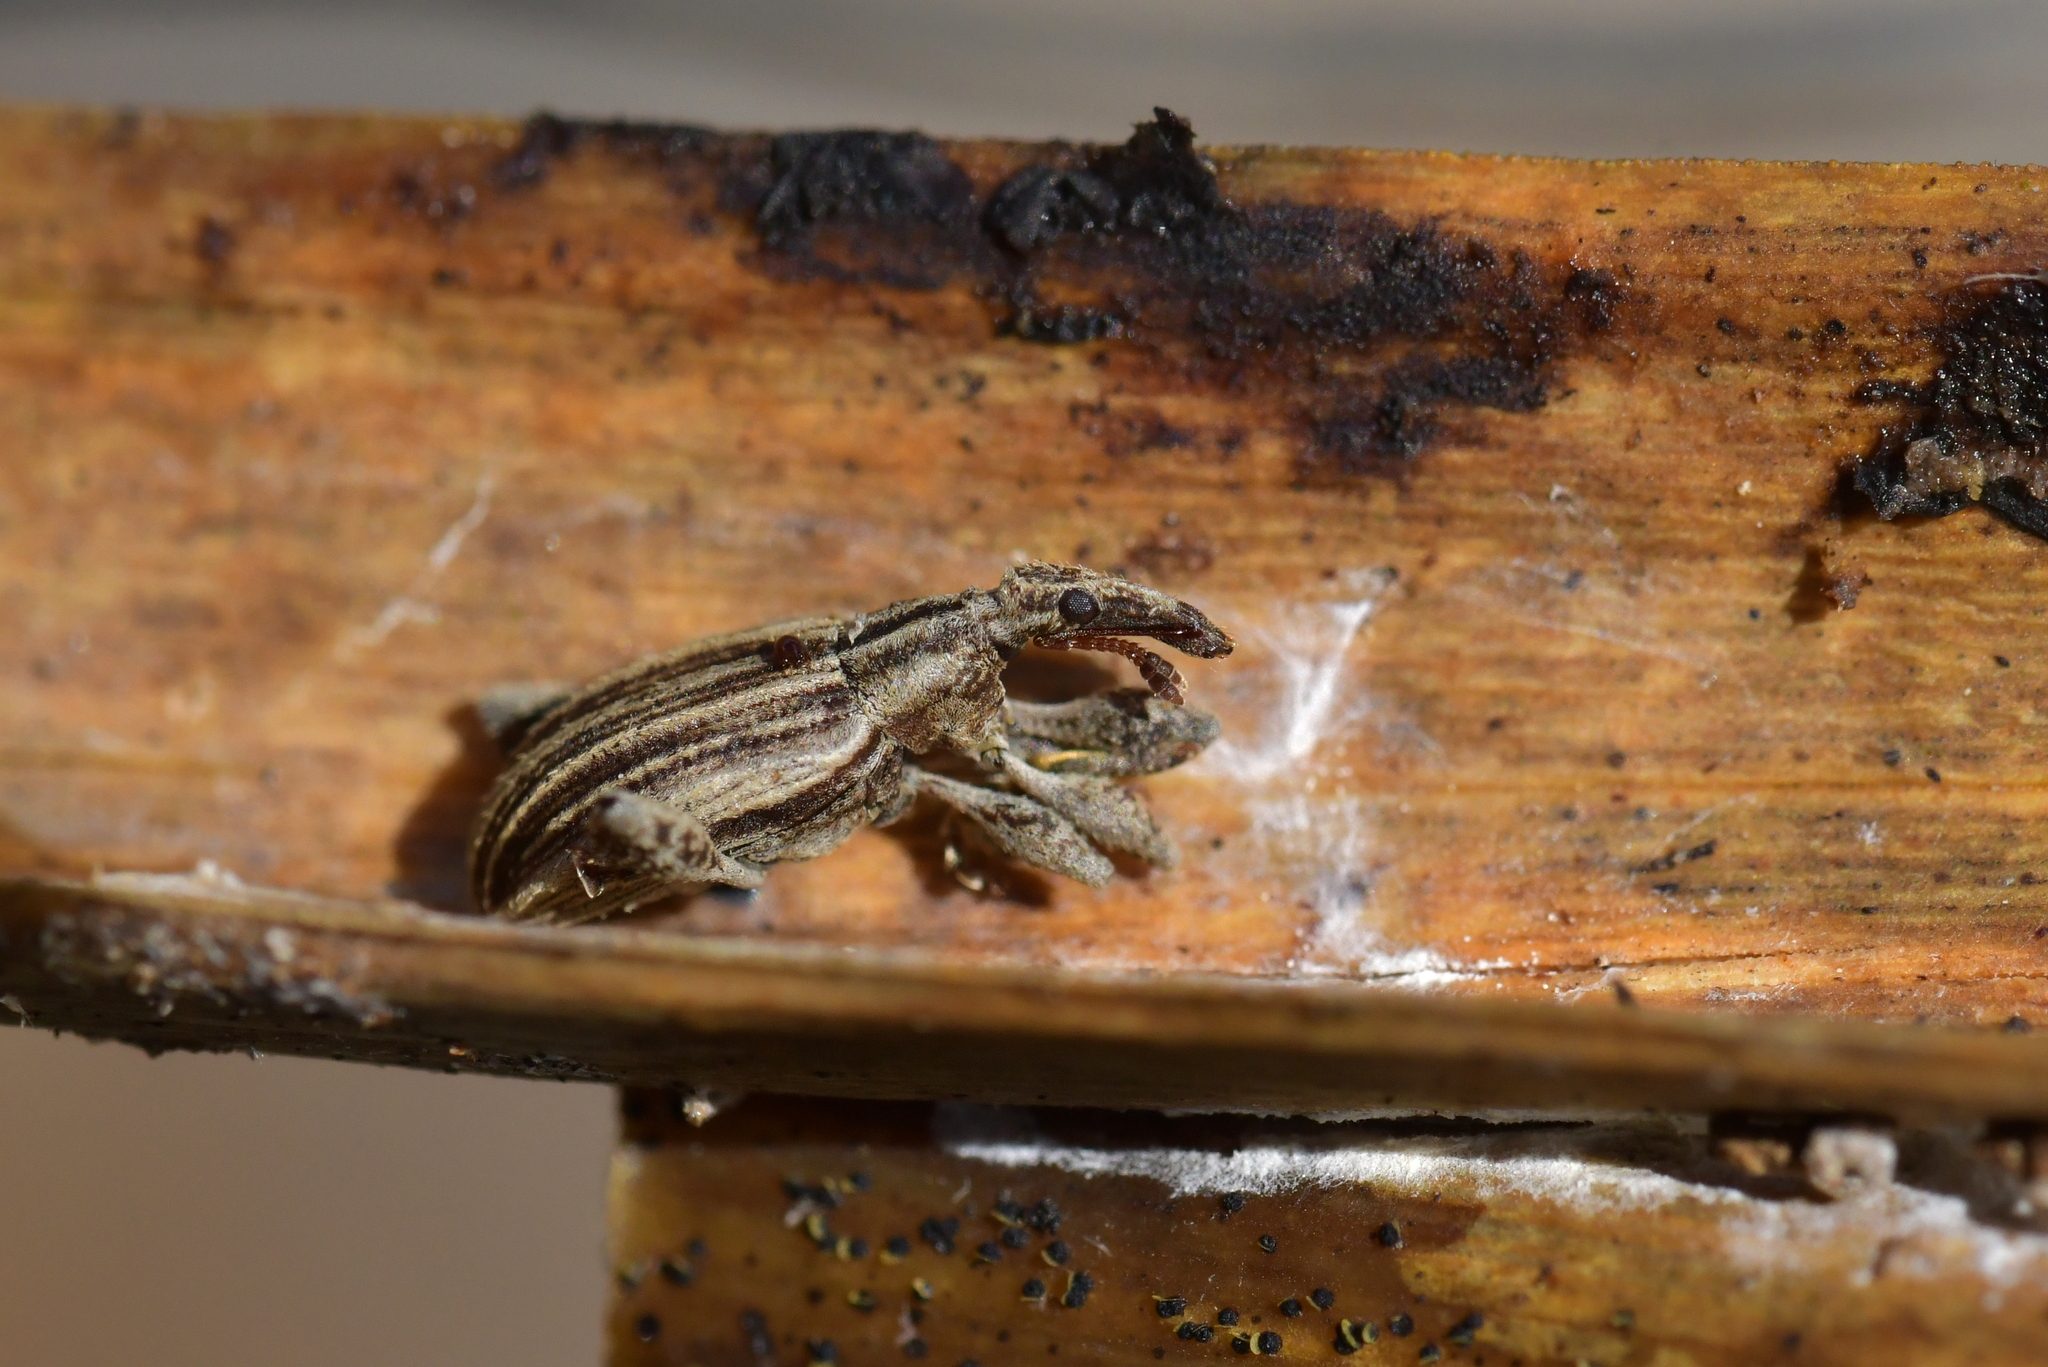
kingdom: Animalia
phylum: Arthropoda
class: Insecta
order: Coleoptera
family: Curculionidae
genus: Stephanorrhynchus
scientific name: Stephanorrhynchus costifer
